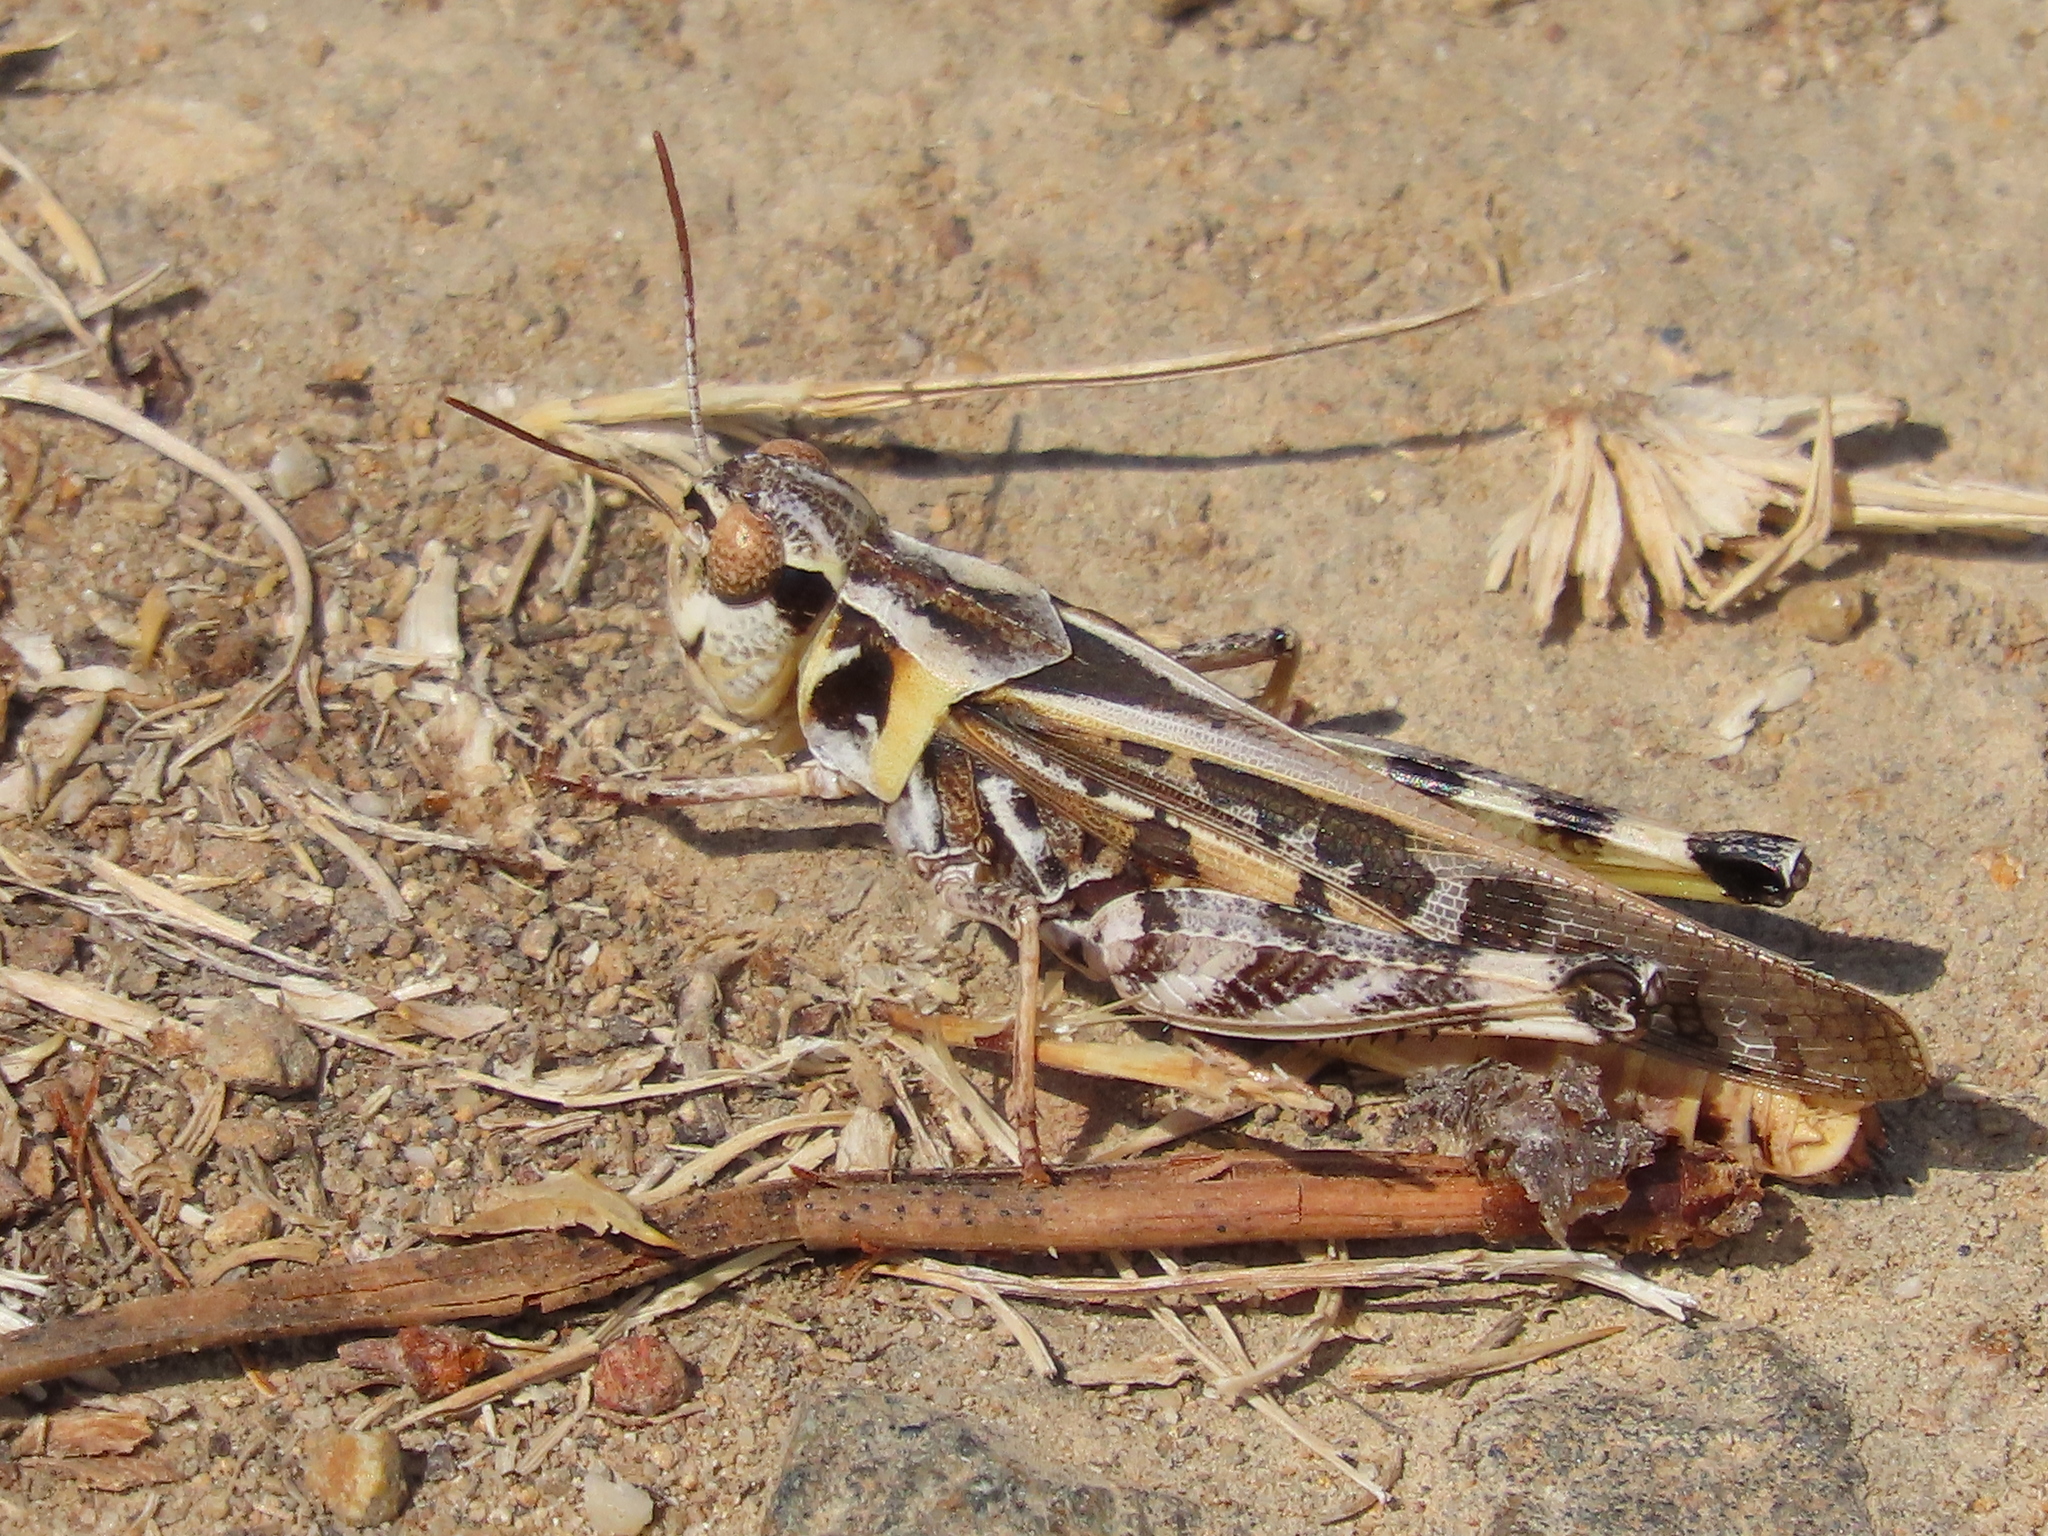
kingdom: Animalia
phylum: Arthropoda
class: Insecta
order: Orthoptera
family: Acrididae
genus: Camnula
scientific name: Camnula pellucida
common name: Clear-winged grasshopper
